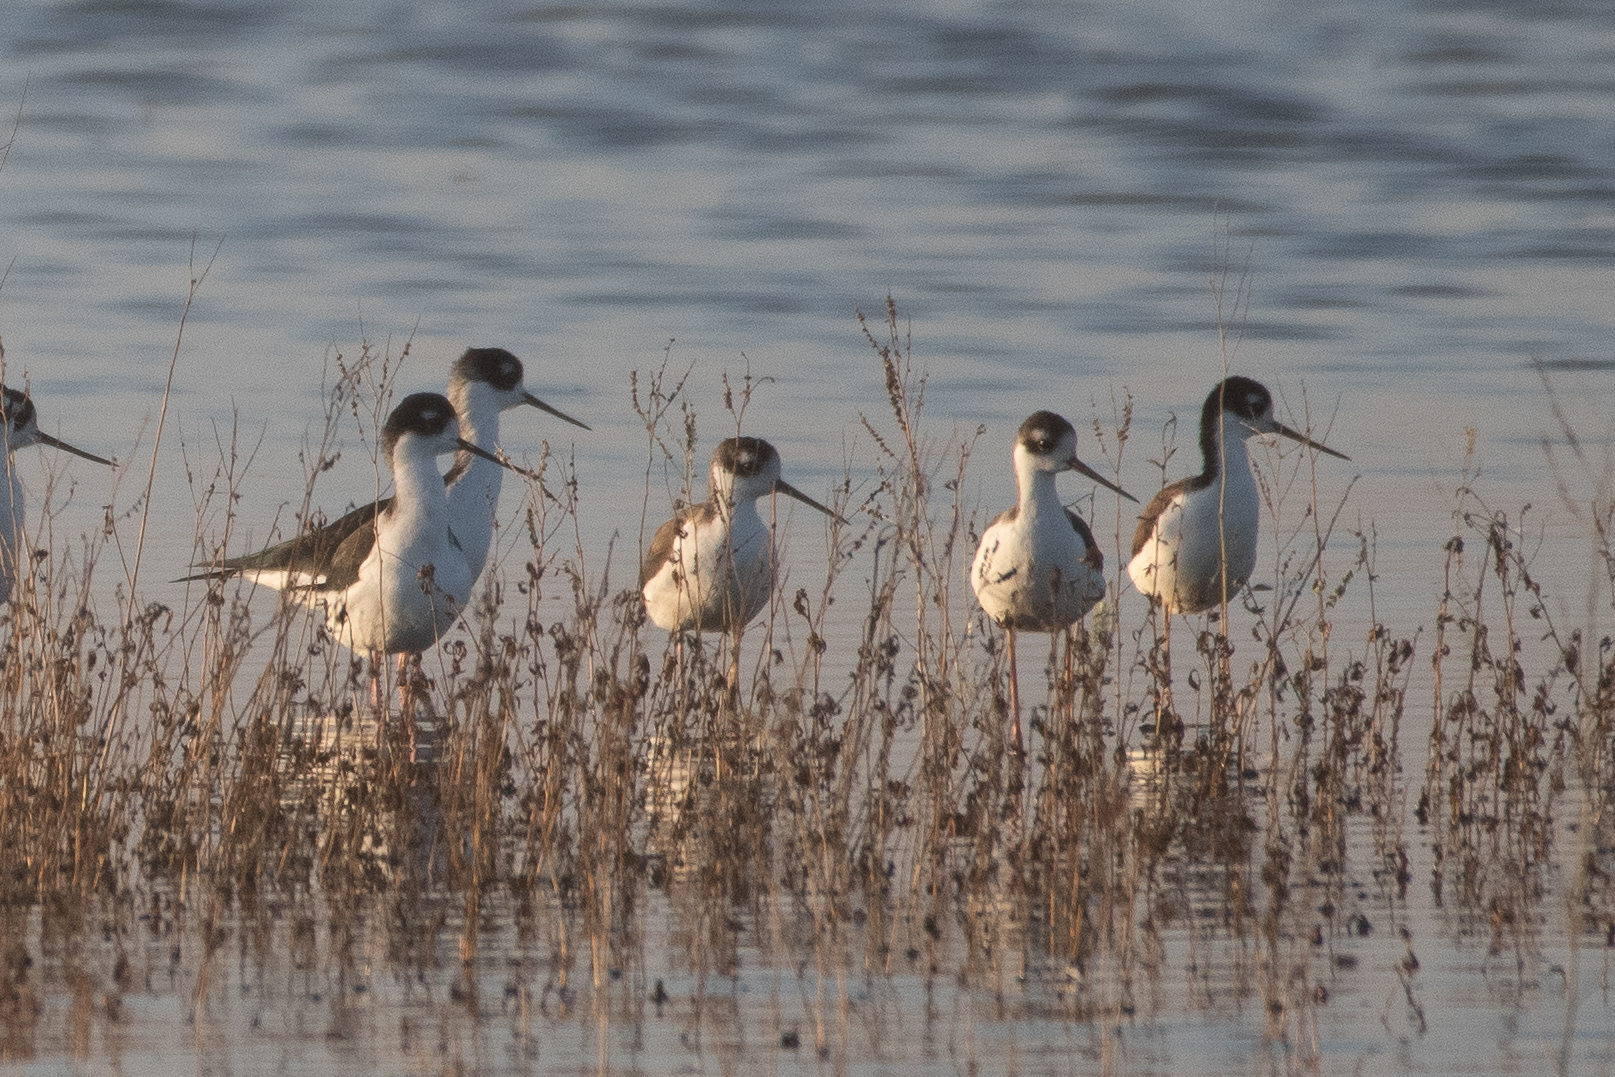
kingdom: Animalia
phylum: Chordata
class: Aves
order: Charadriiformes
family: Recurvirostridae
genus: Himantopus
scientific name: Himantopus mexicanus
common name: Black-necked stilt
